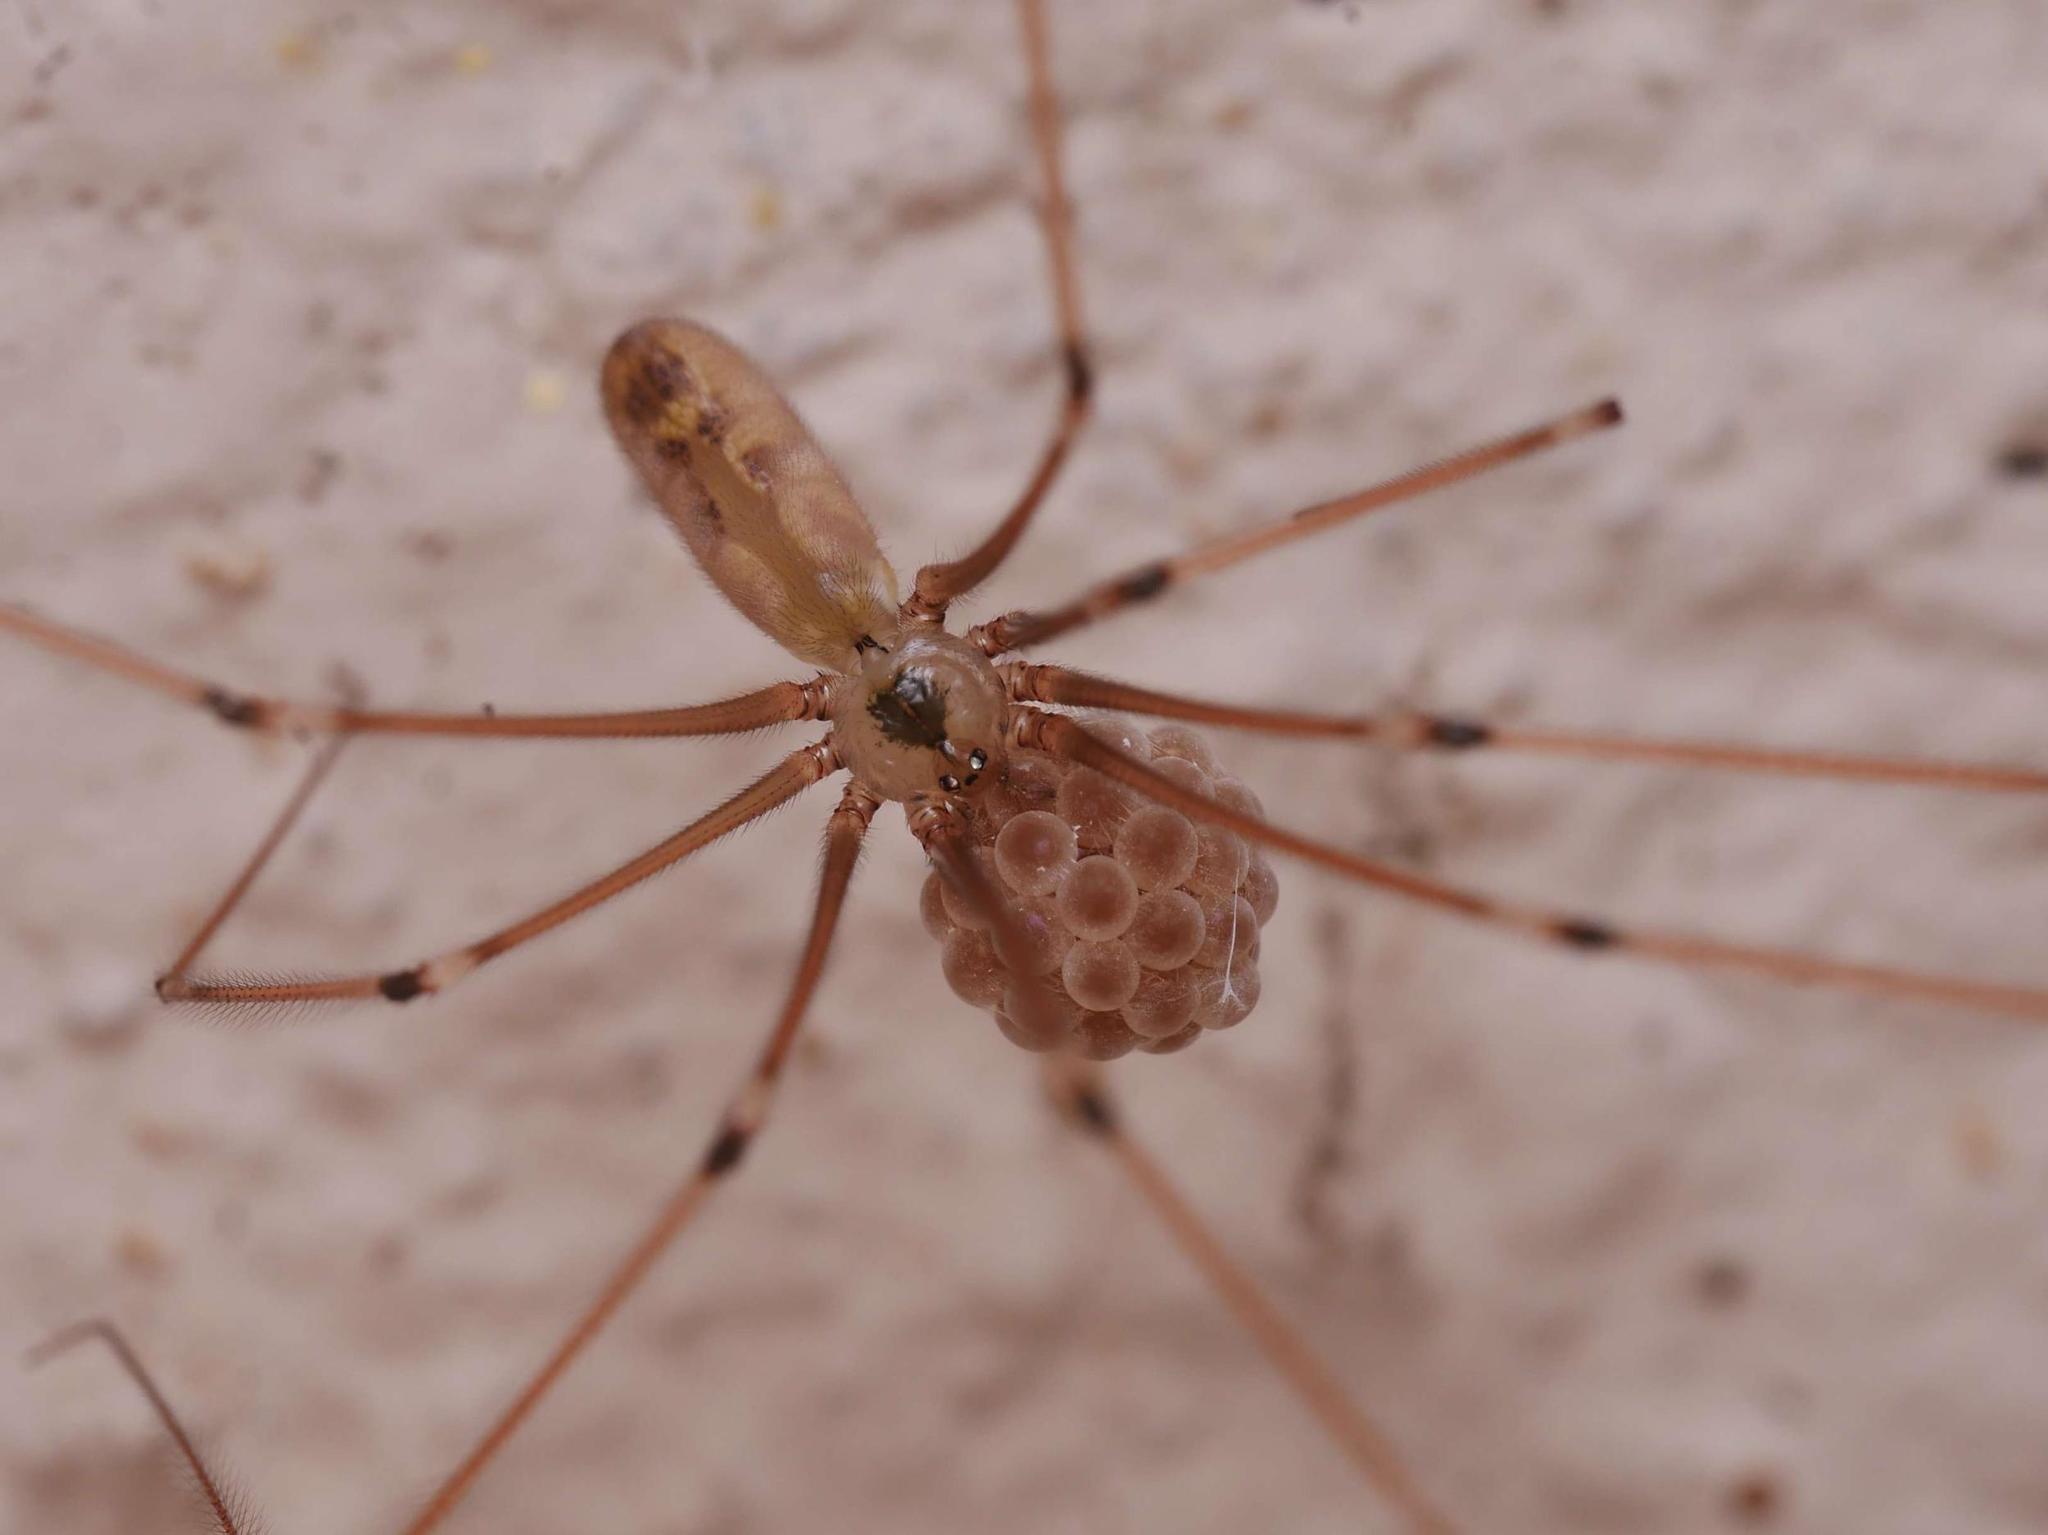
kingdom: Animalia
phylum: Arthropoda
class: Arachnida
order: Araneae
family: Pholcidae
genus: Pholcus
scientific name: Pholcus phalangioides
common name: Longbodied cellar spider
